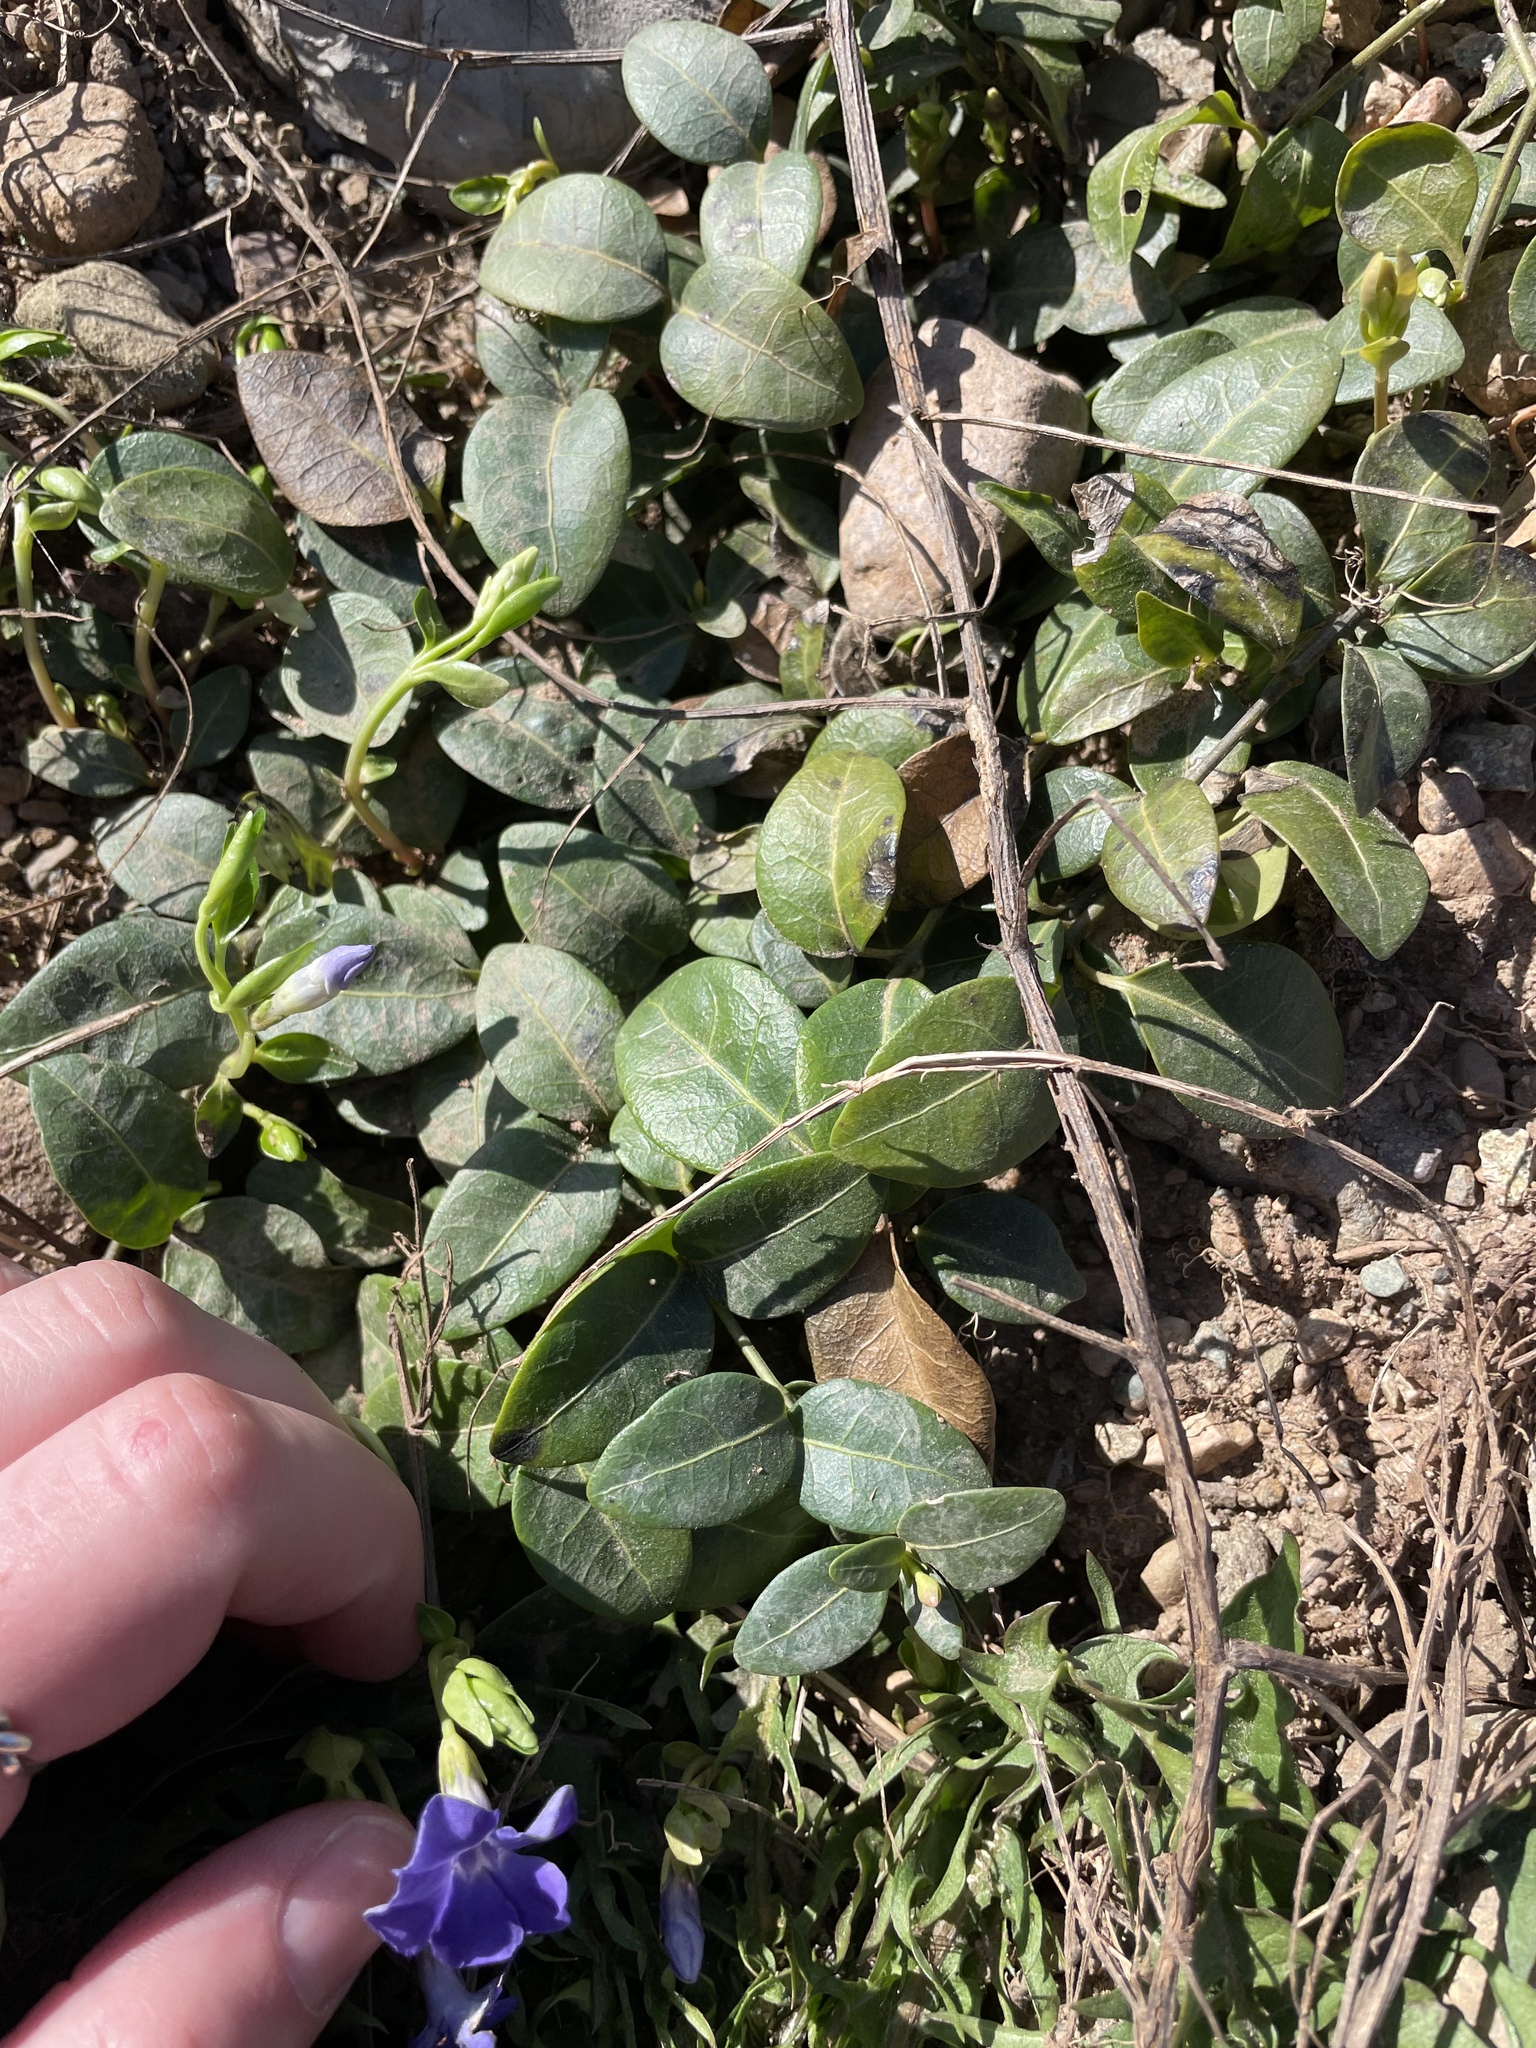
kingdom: Plantae
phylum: Tracheophyta
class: Magnoliopsida
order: Gentianales
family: Apocynaceae
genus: Vinca
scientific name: Vinca minor
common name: Lesser periwinkle
